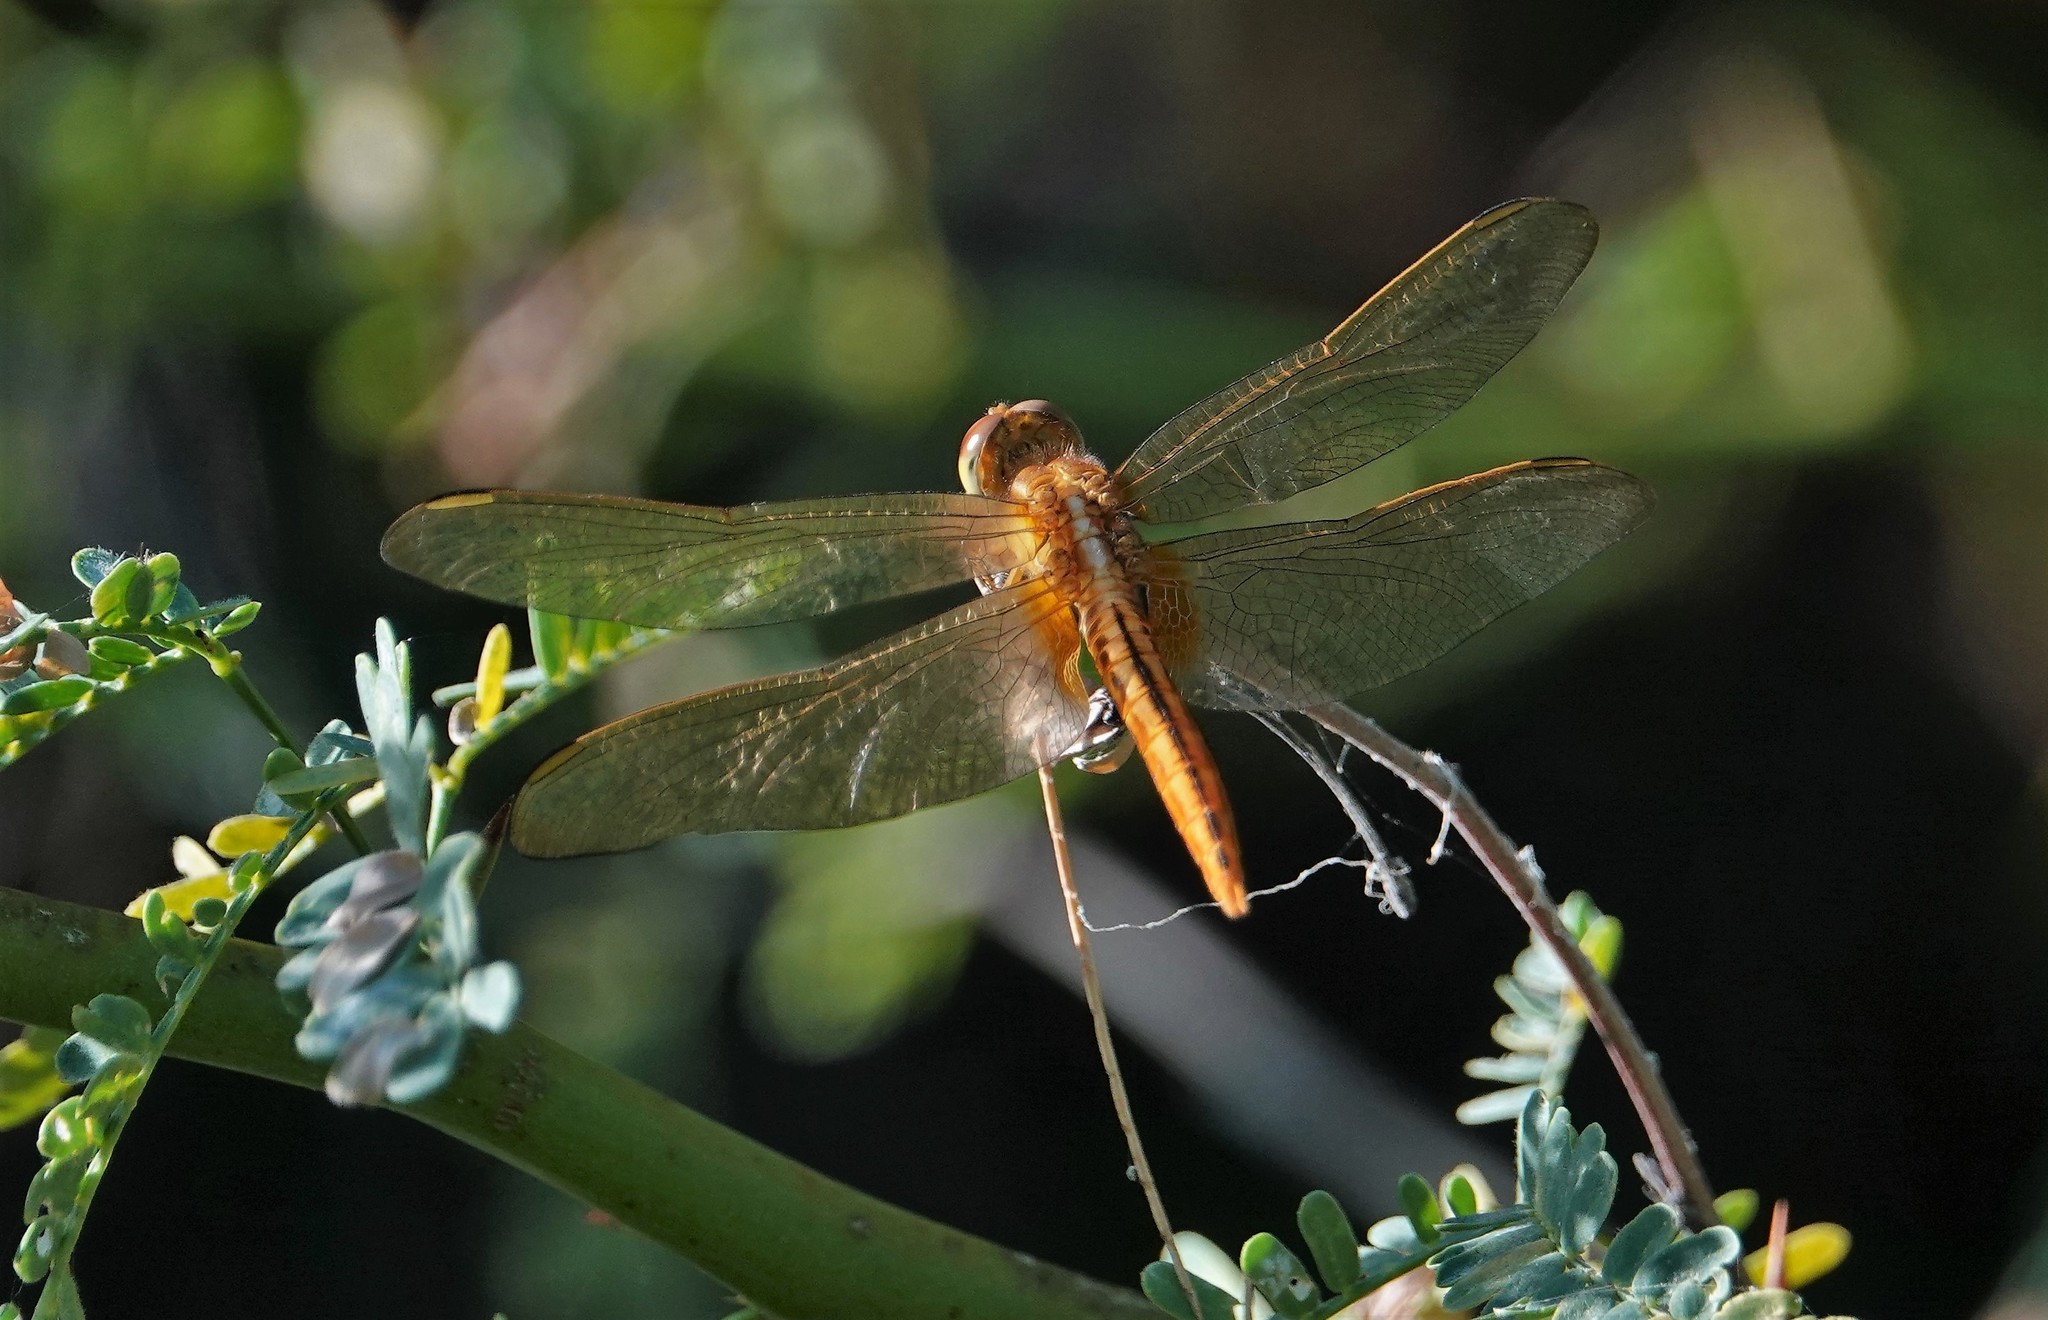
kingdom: Animalia
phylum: Arthropoda
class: Insecta
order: Odonata
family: Libellulidae
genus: Crocothemis
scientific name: Crocothemis servilia
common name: Scarlet skimmer
